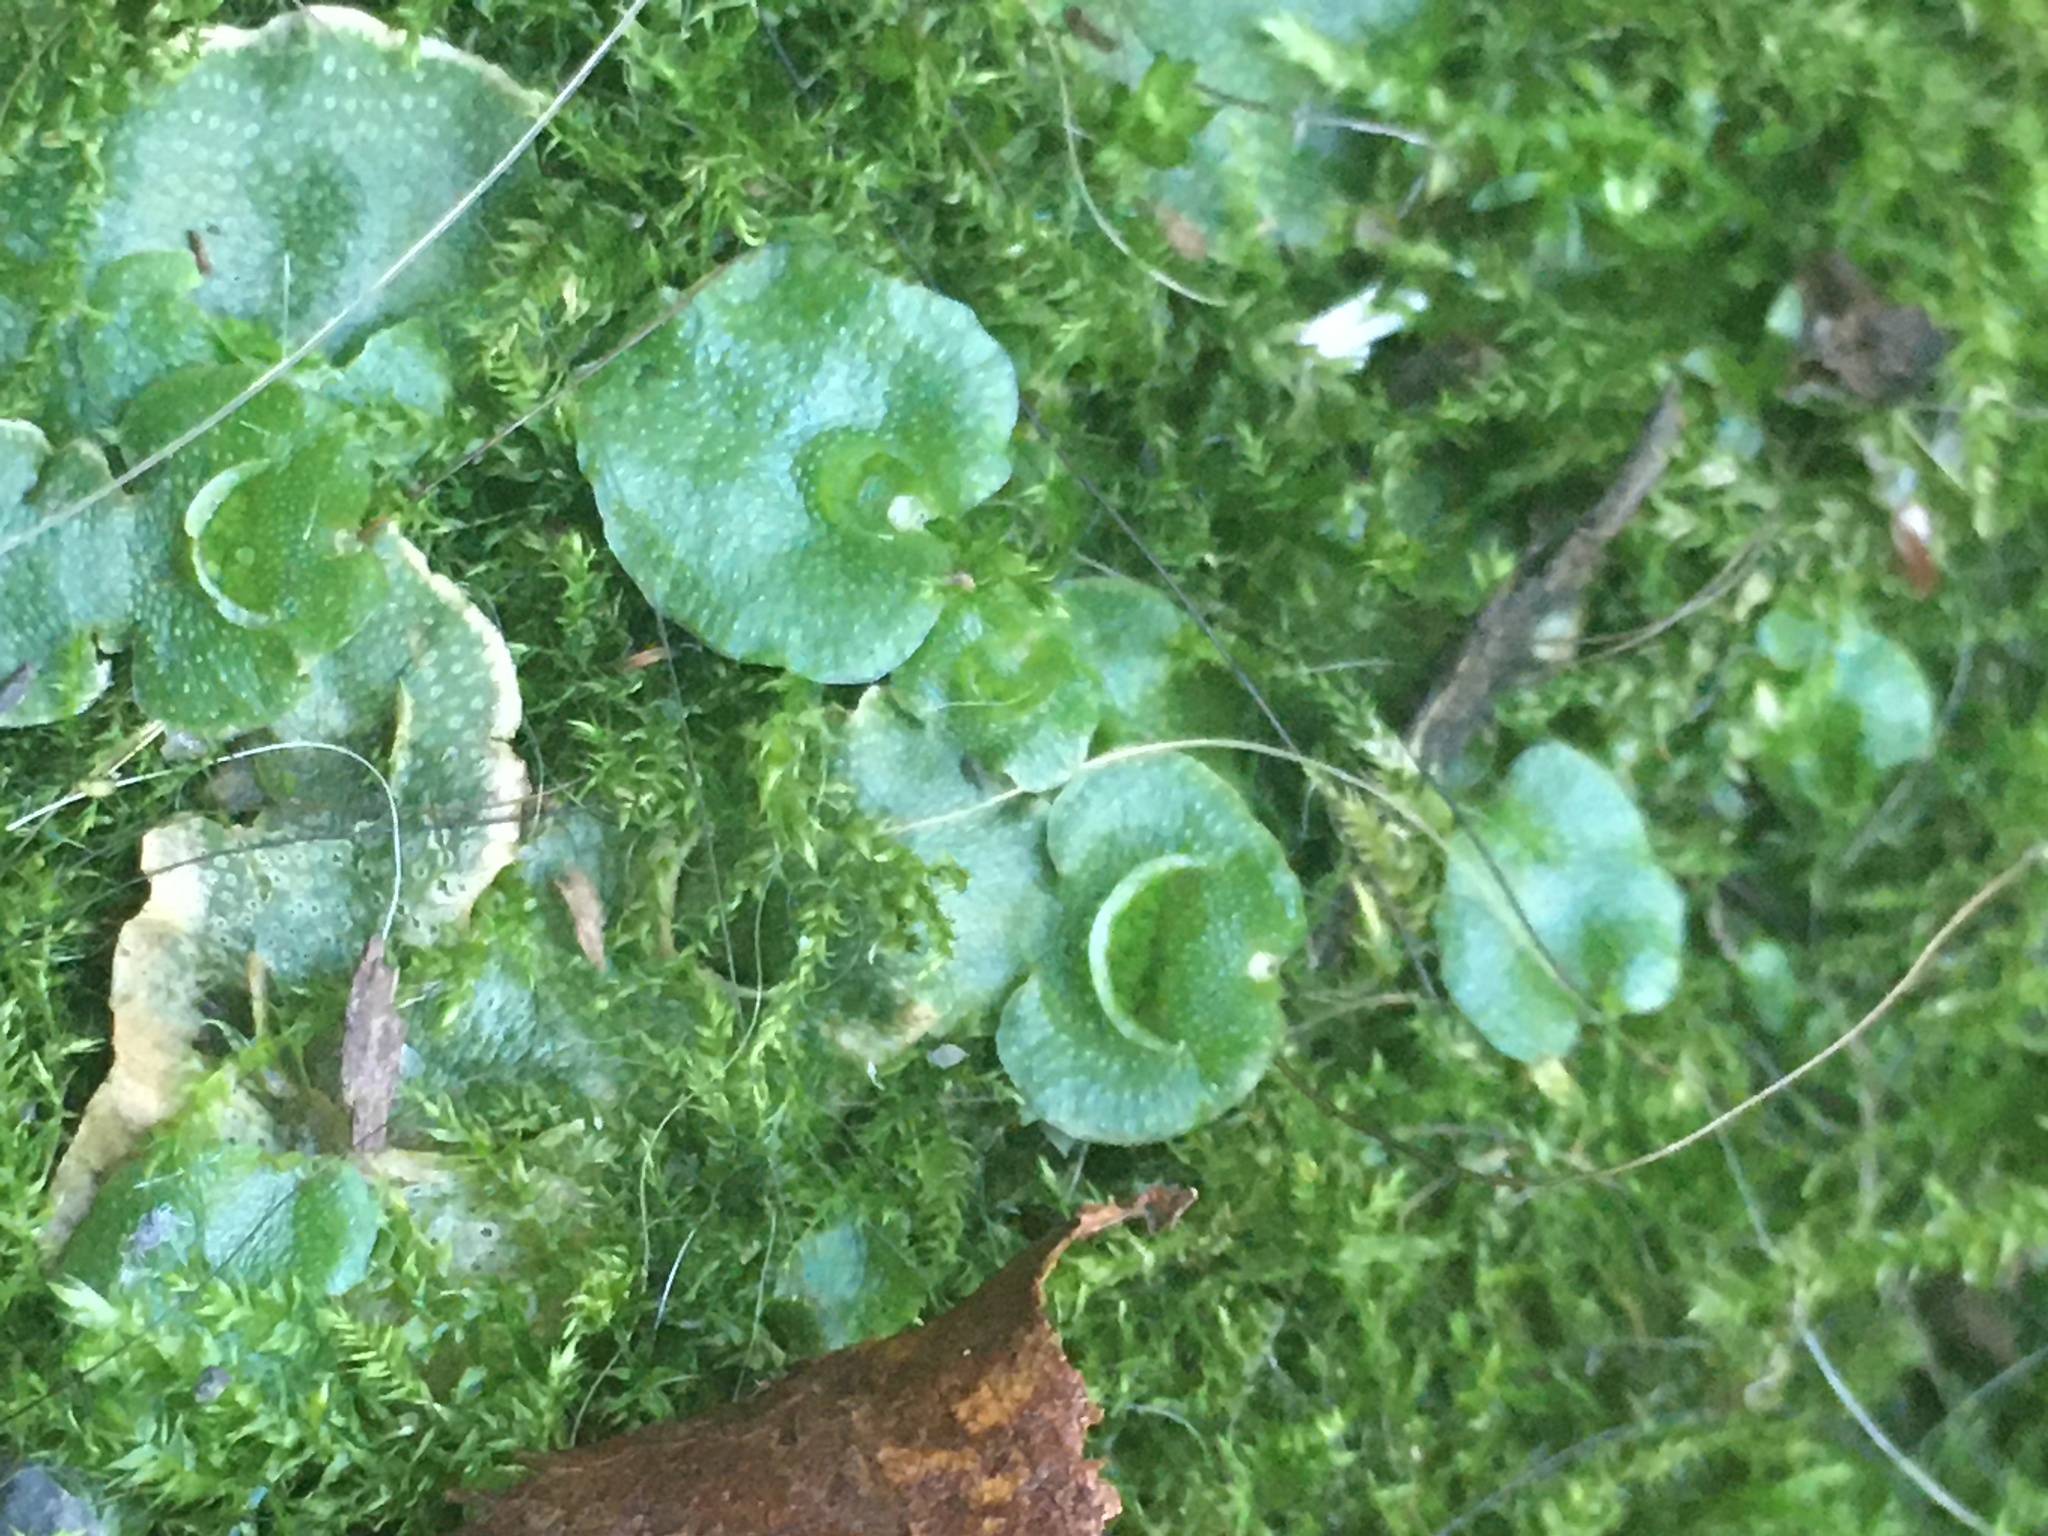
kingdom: Plantae
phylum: Marchantiophyta
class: Marchantiopsida
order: Lunulariales
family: Lunulariaceae
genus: Lunularia
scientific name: Lunularia cruciata
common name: Crescent-cup liverwort
